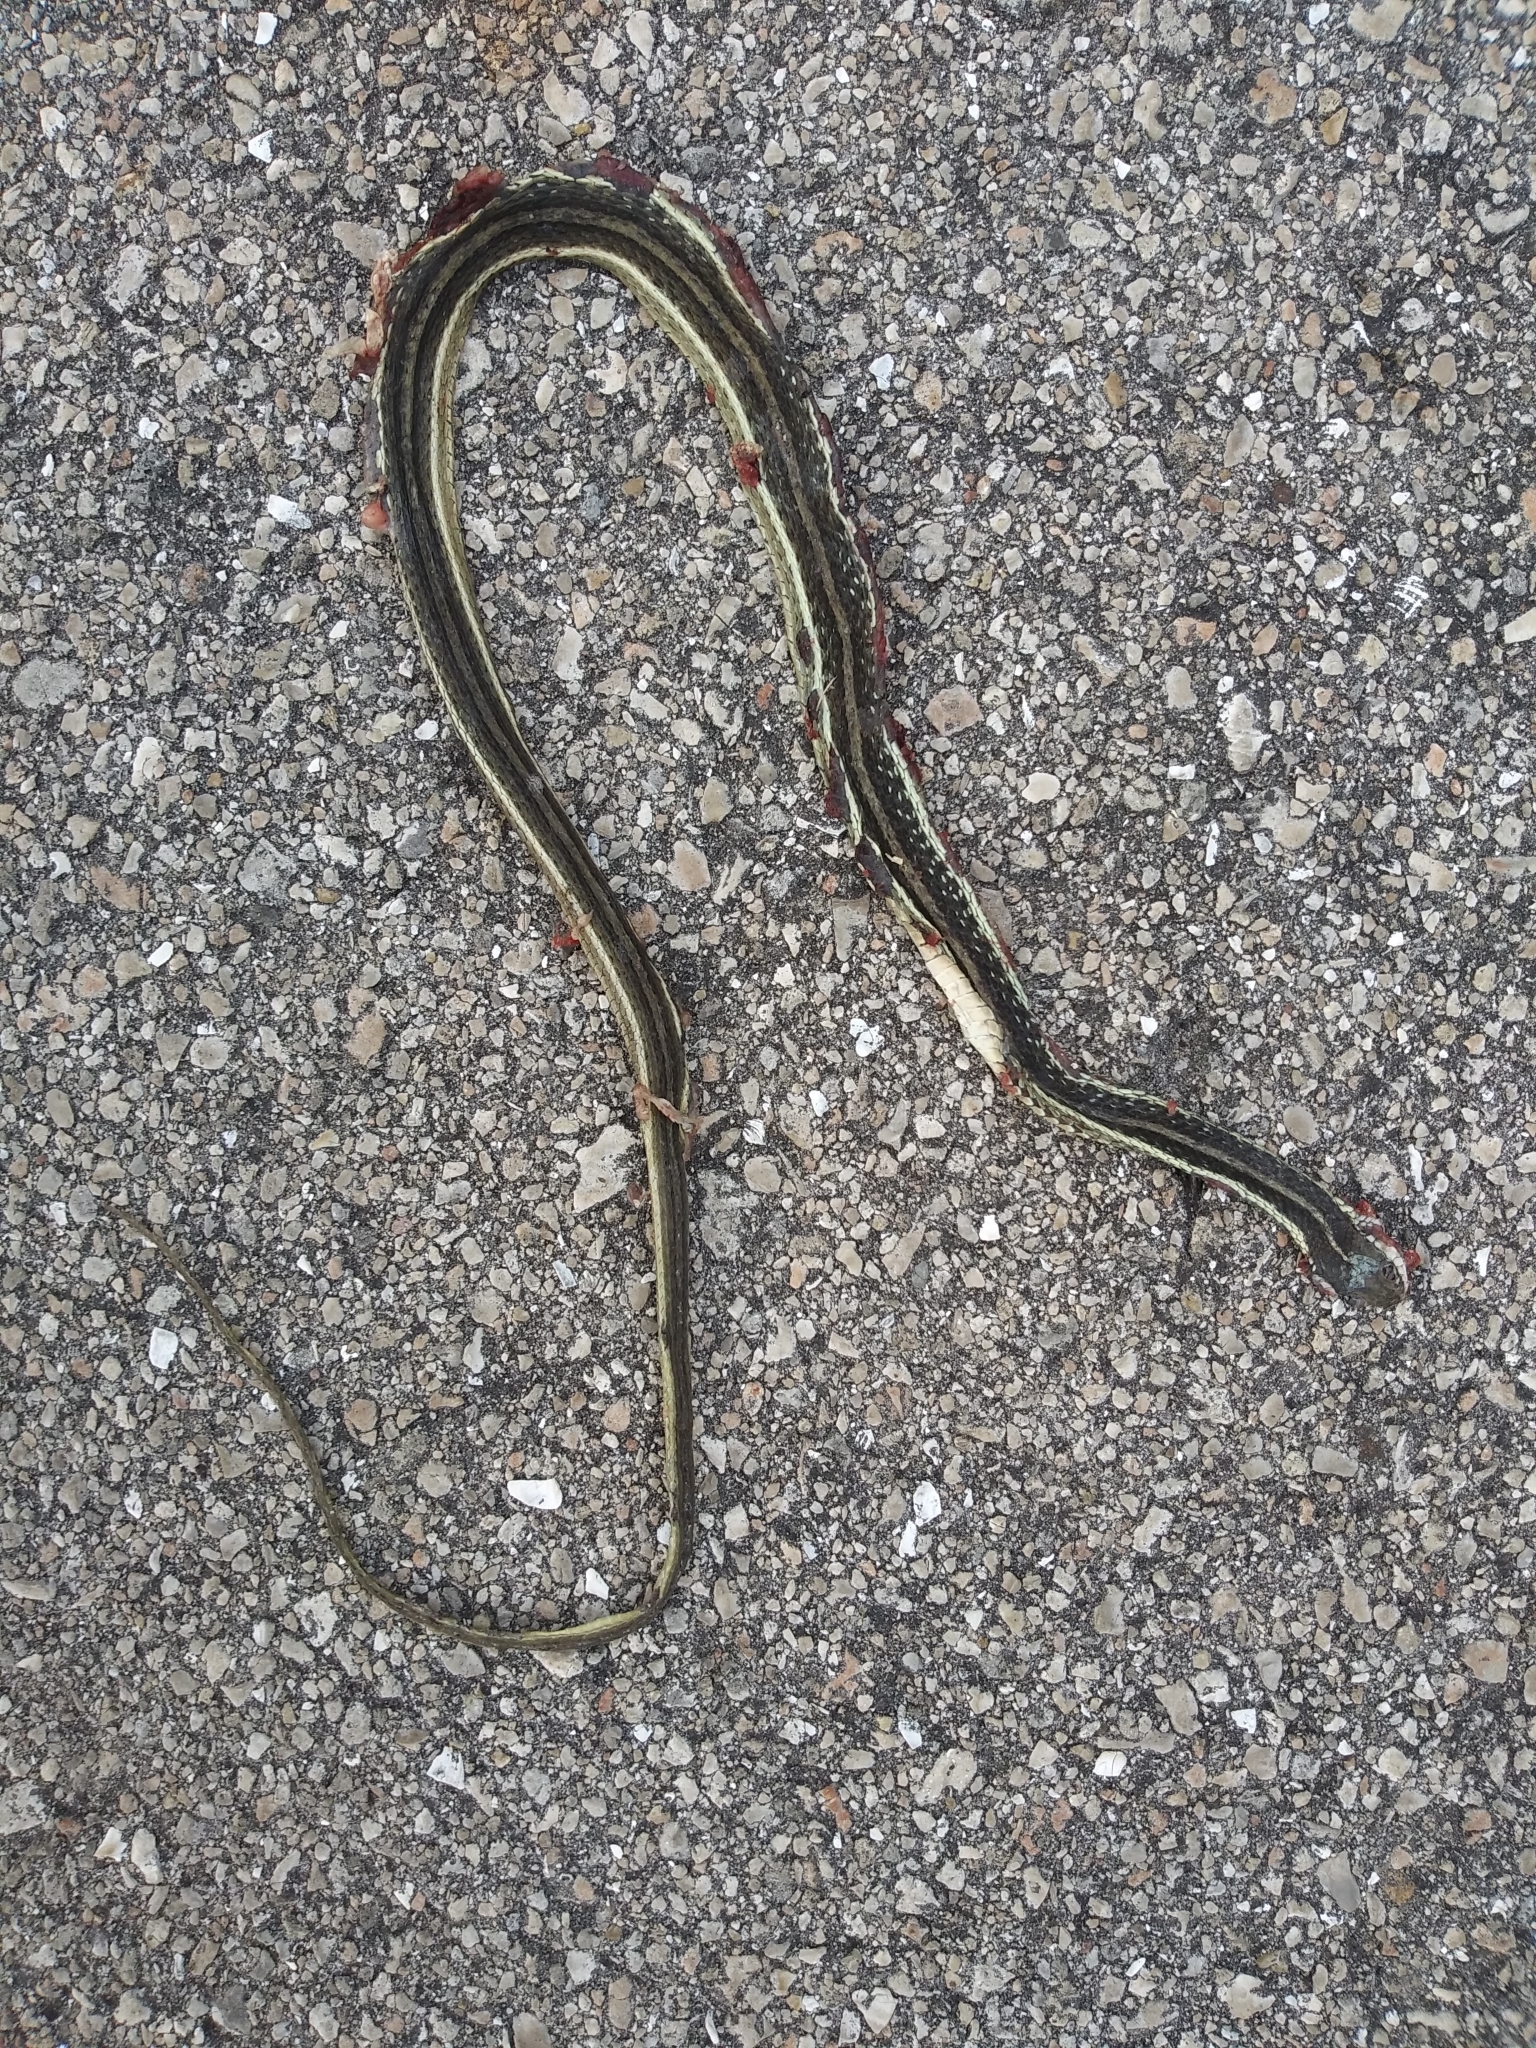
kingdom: Animalia
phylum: Chordata
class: Squamata
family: Colubridae
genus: Thamnophis
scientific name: Thamnophis saurita
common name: Eastern ribbonsnake
